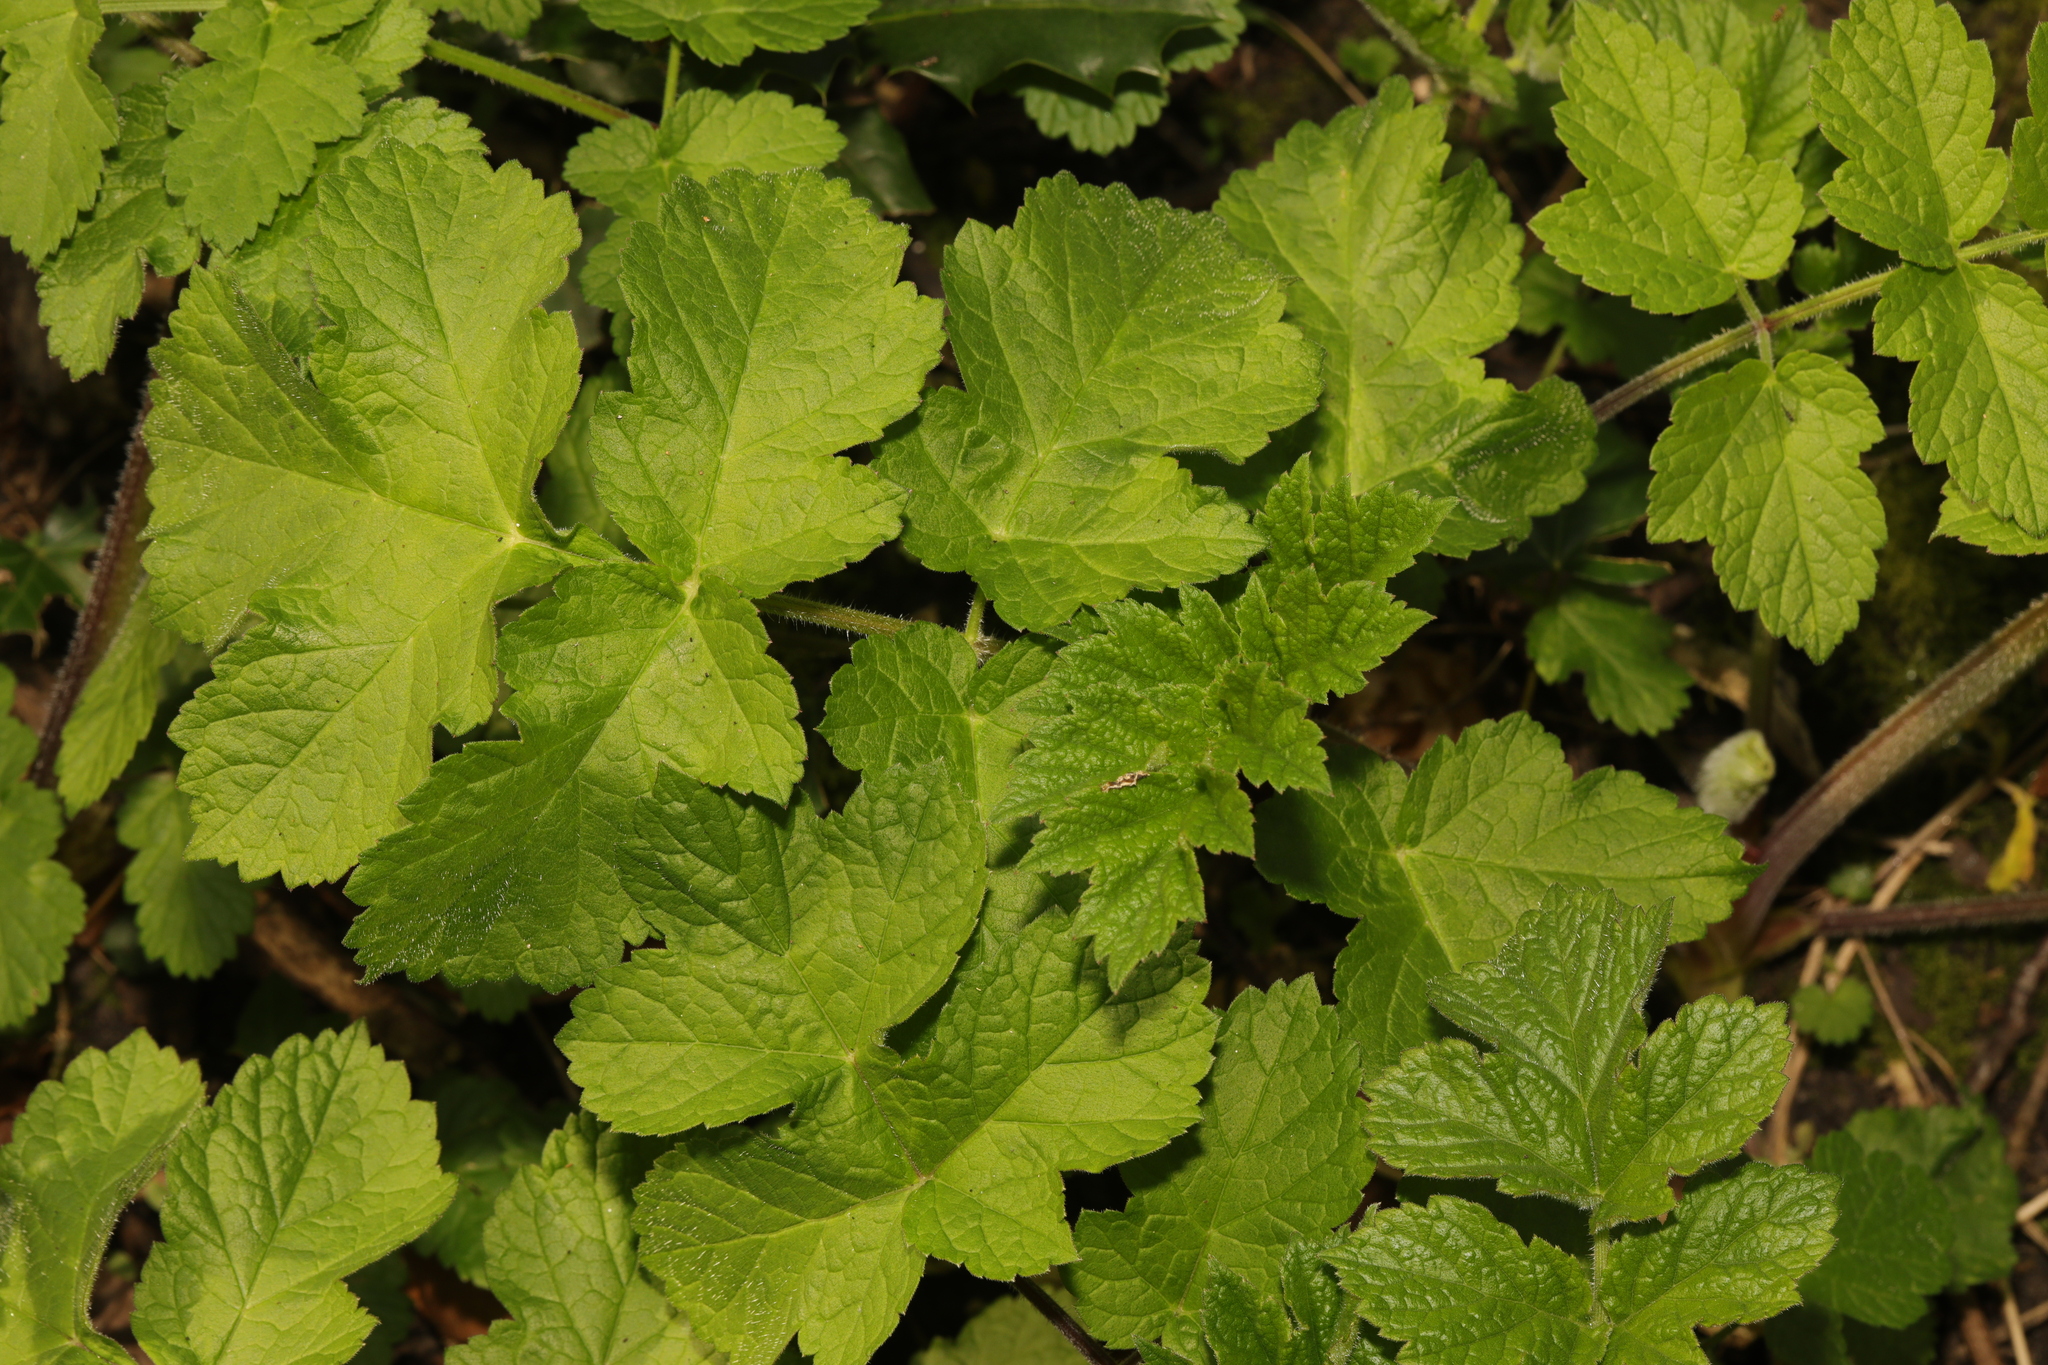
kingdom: Plantae
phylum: Tracheophyta
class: Magnoliopsida
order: Apiales
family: Apiaceae
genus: Heracleum
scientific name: Heracleum sphondylium
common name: Hogweed
